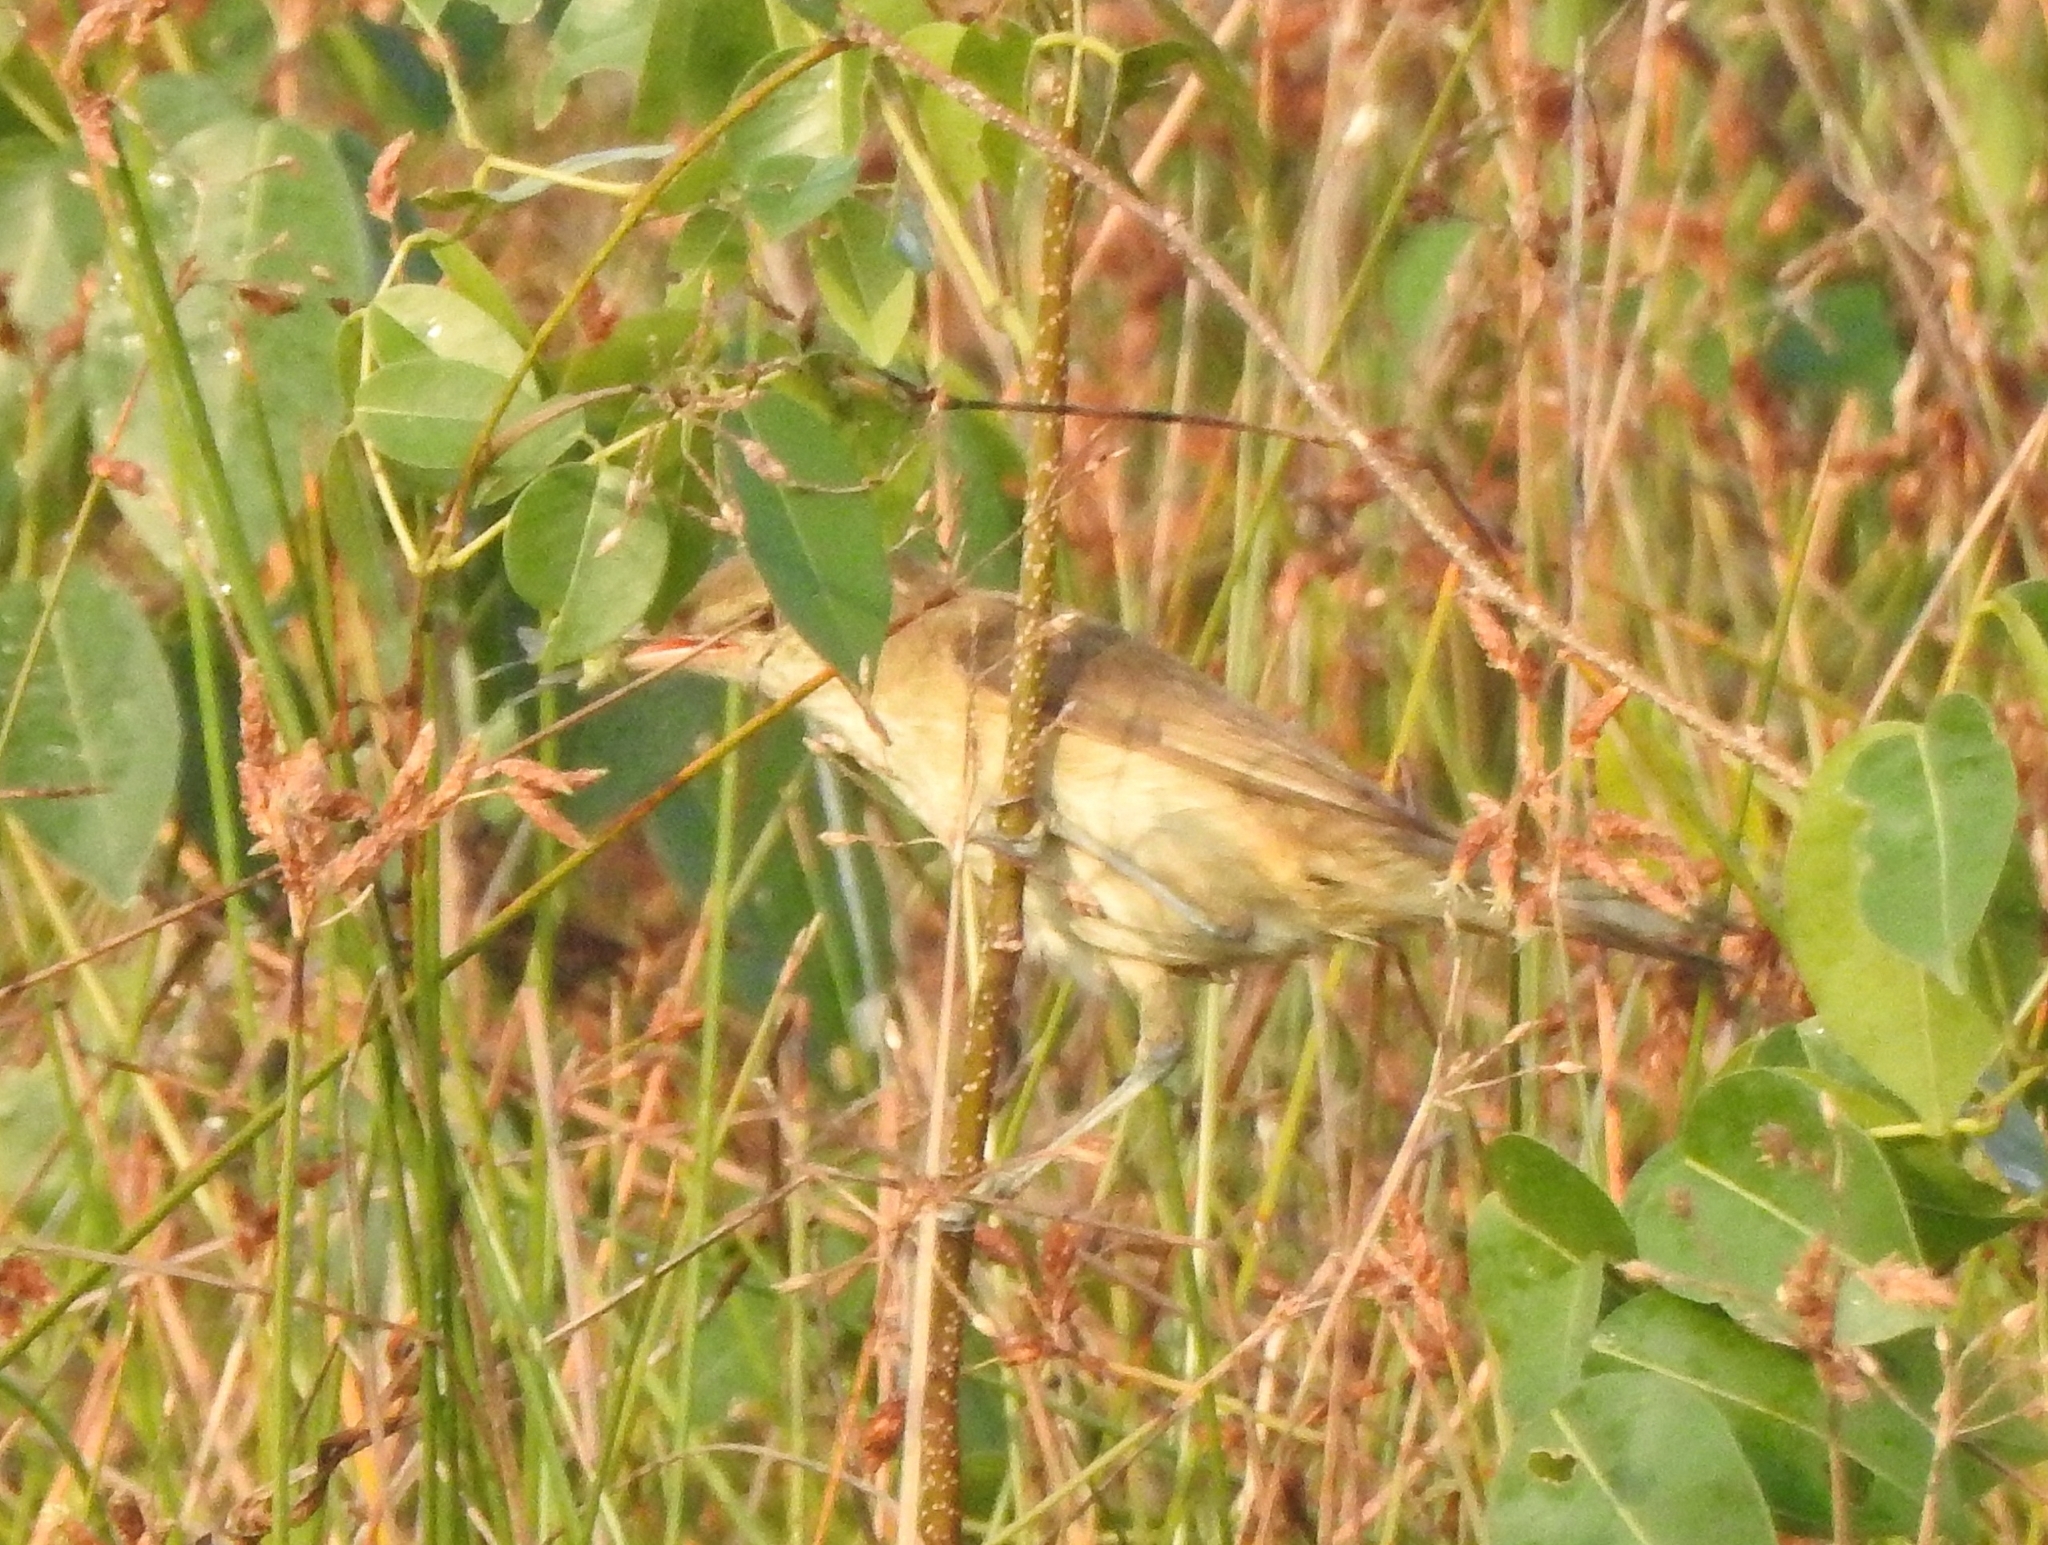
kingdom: Animalia
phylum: Chordata
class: Aves
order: Passeriformes
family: Acrocephalidae
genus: Acrocephalus
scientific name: Acrocephalus stentoreus
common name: Clamorous reed warbler
